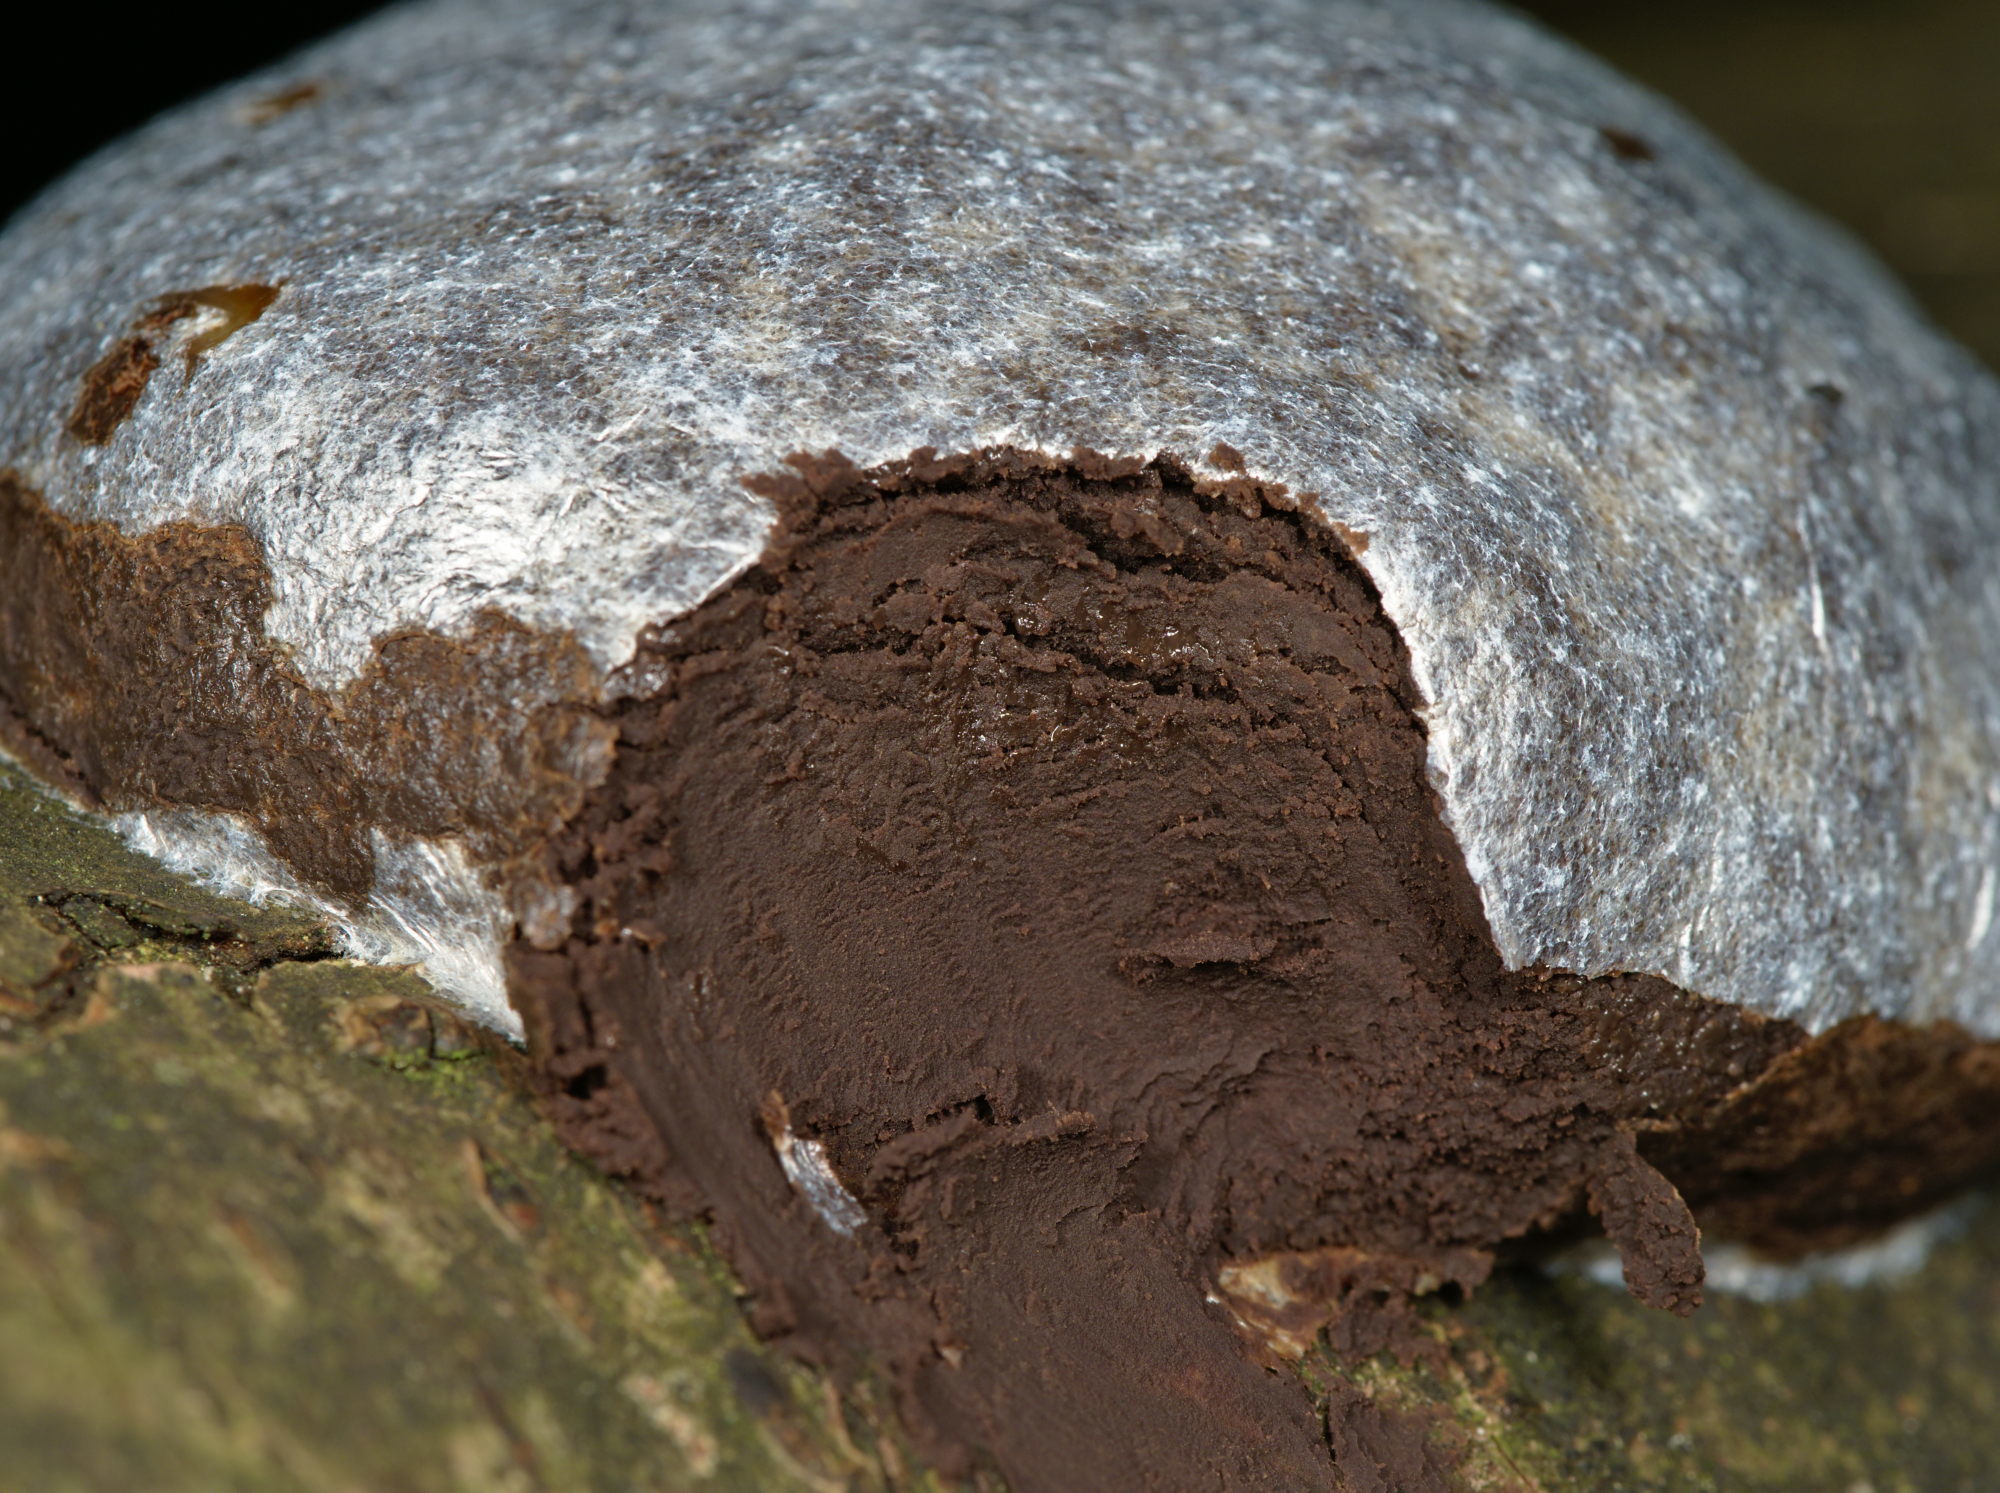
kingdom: Protozoa
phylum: Mycetozoa
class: Myxomycetes
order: Cribrariales
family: Tubiferaceae
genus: Reticularia
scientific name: Reticularia lycoperdon
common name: False puffball
